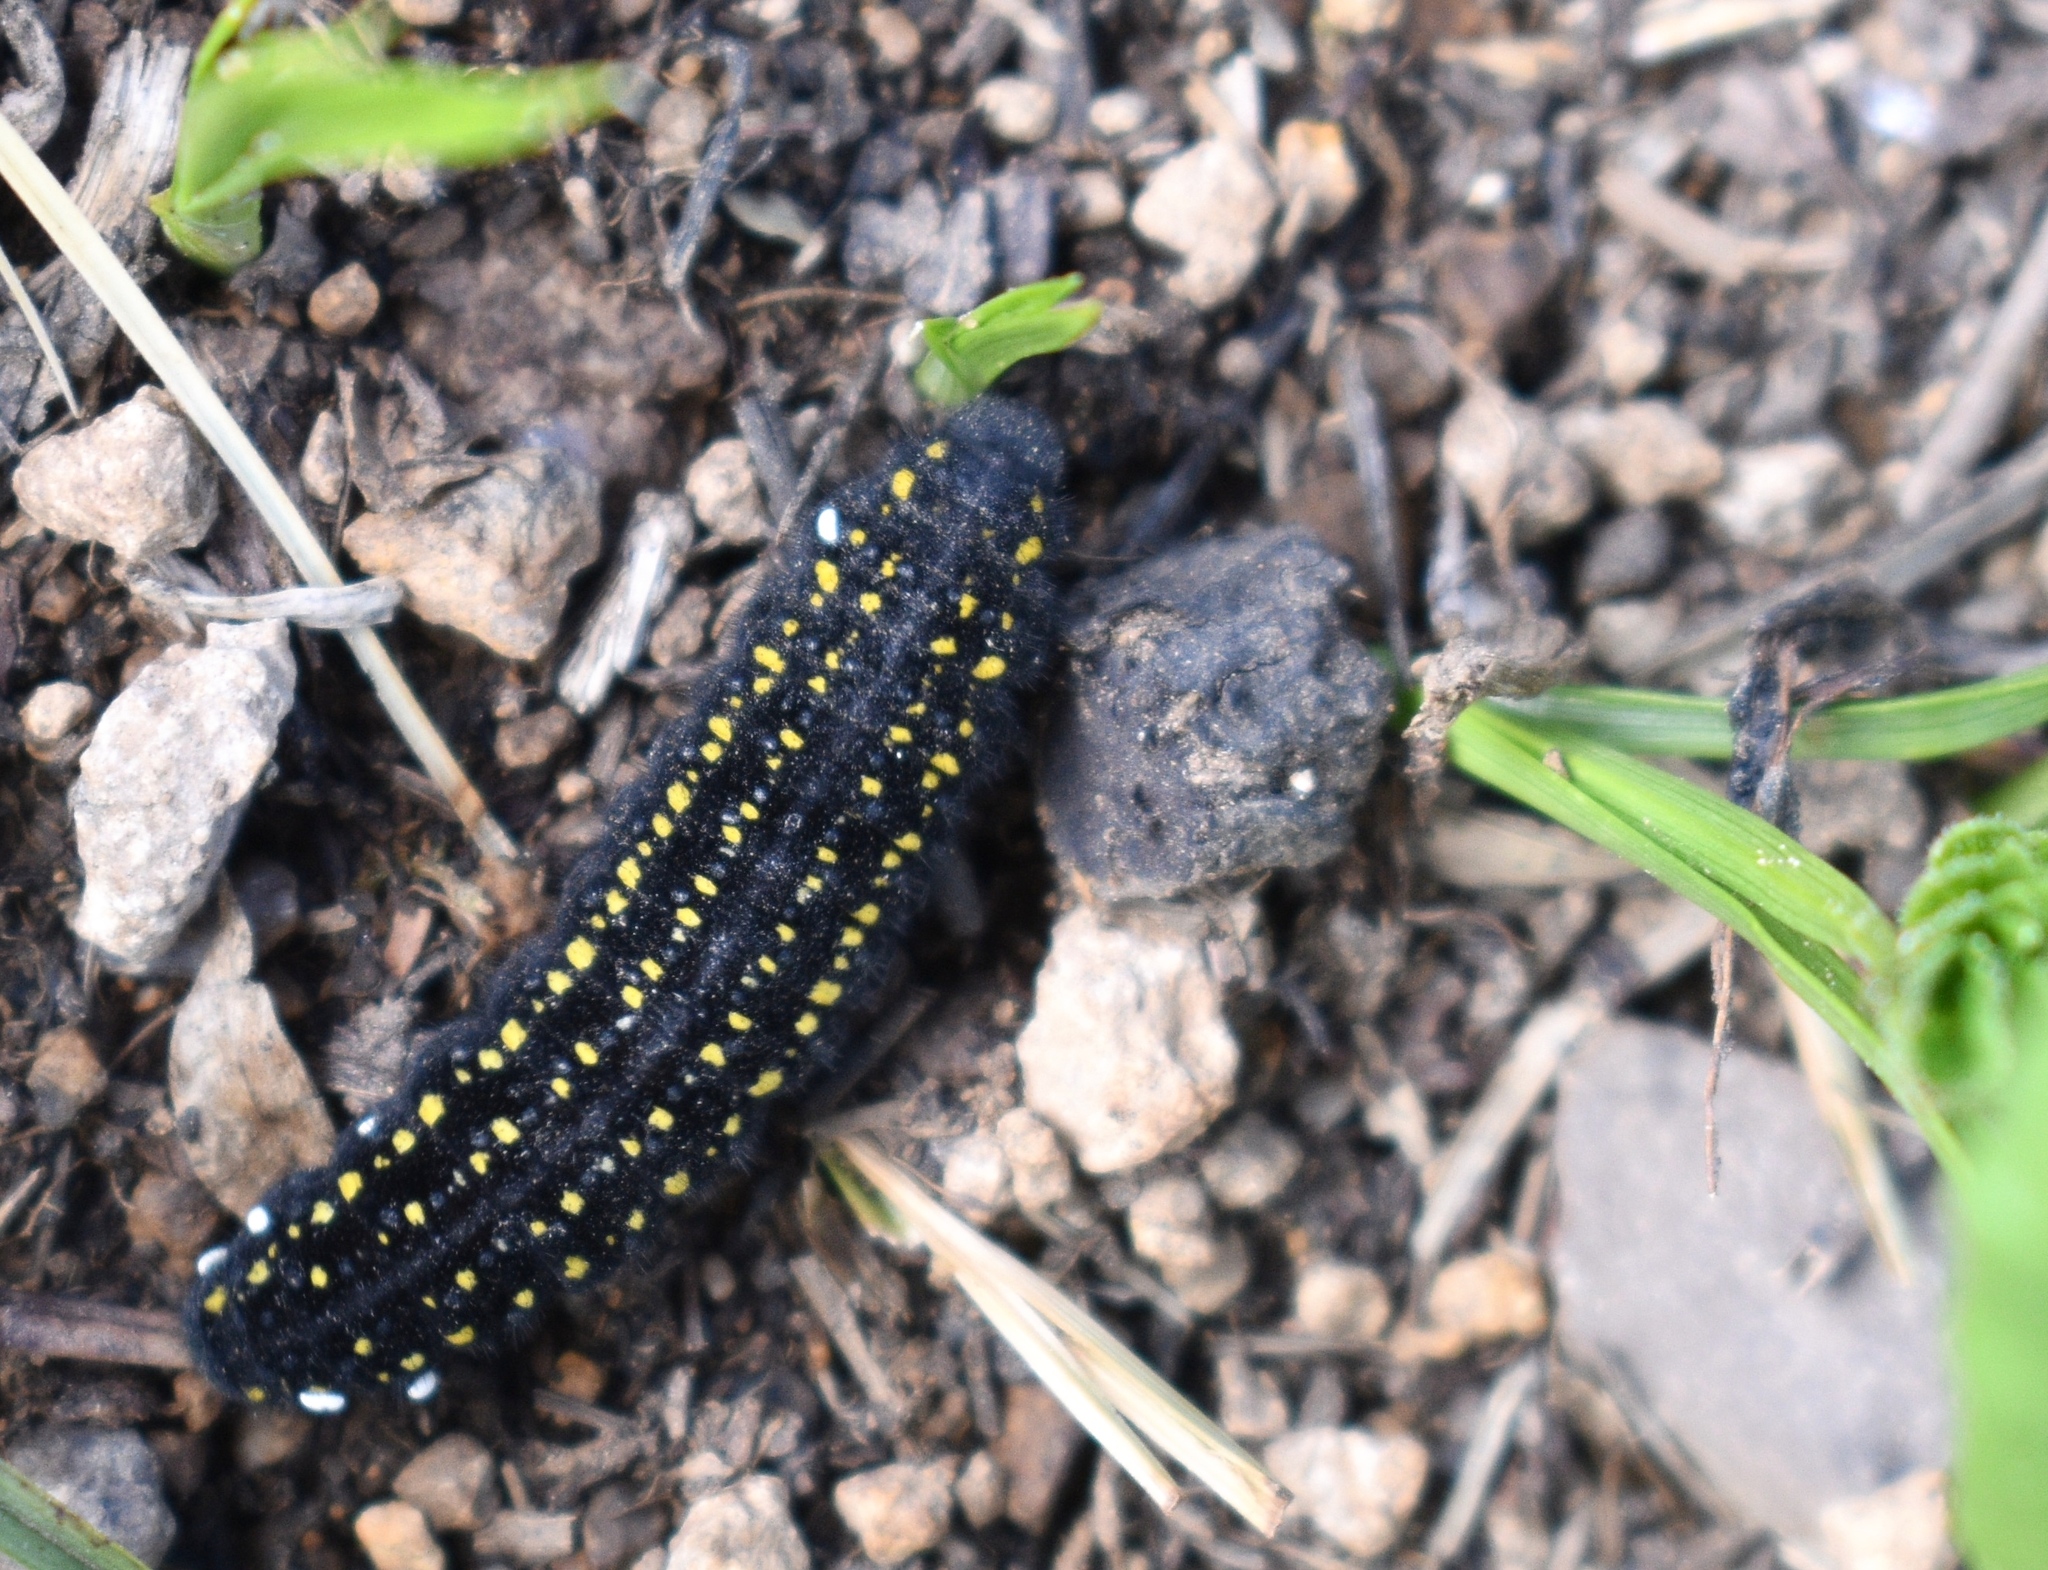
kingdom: Animalia
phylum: Arthropoda
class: Insecta
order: Lepidoptera
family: Papilionidae
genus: Parnassius
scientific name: Parnassius smintheus
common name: Mountain parnassian
